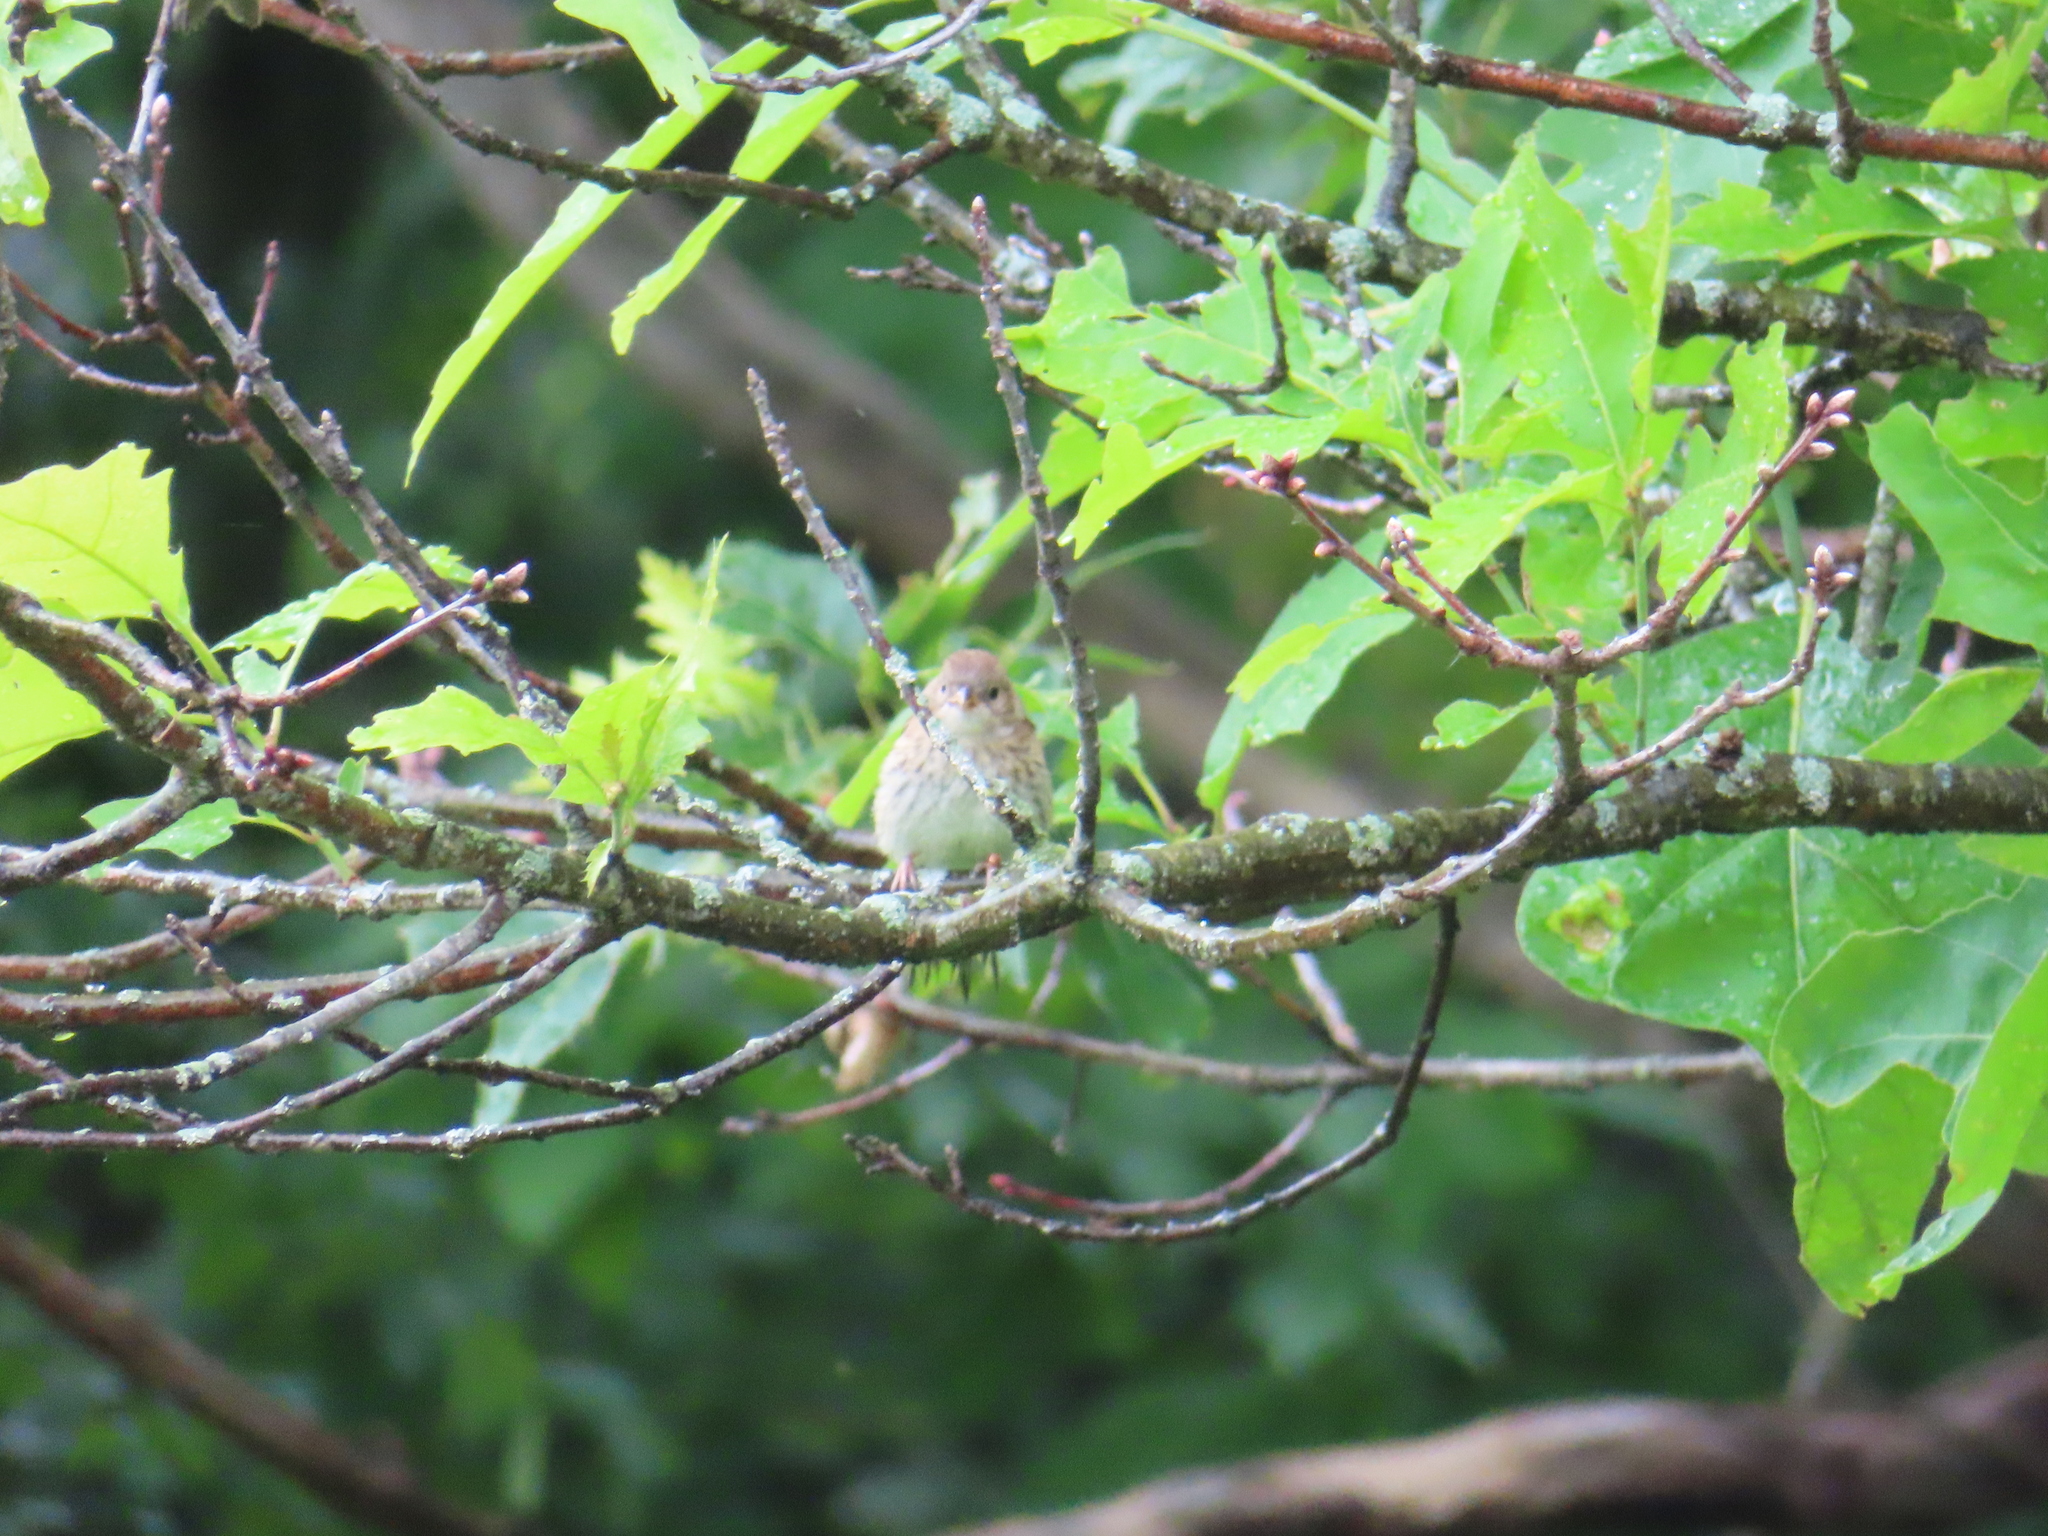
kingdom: Animalia
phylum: Chordata
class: Aves
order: Passeriformes
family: Passerellidae
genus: Spizella
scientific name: Spizella pusilla
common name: Field sparrow
